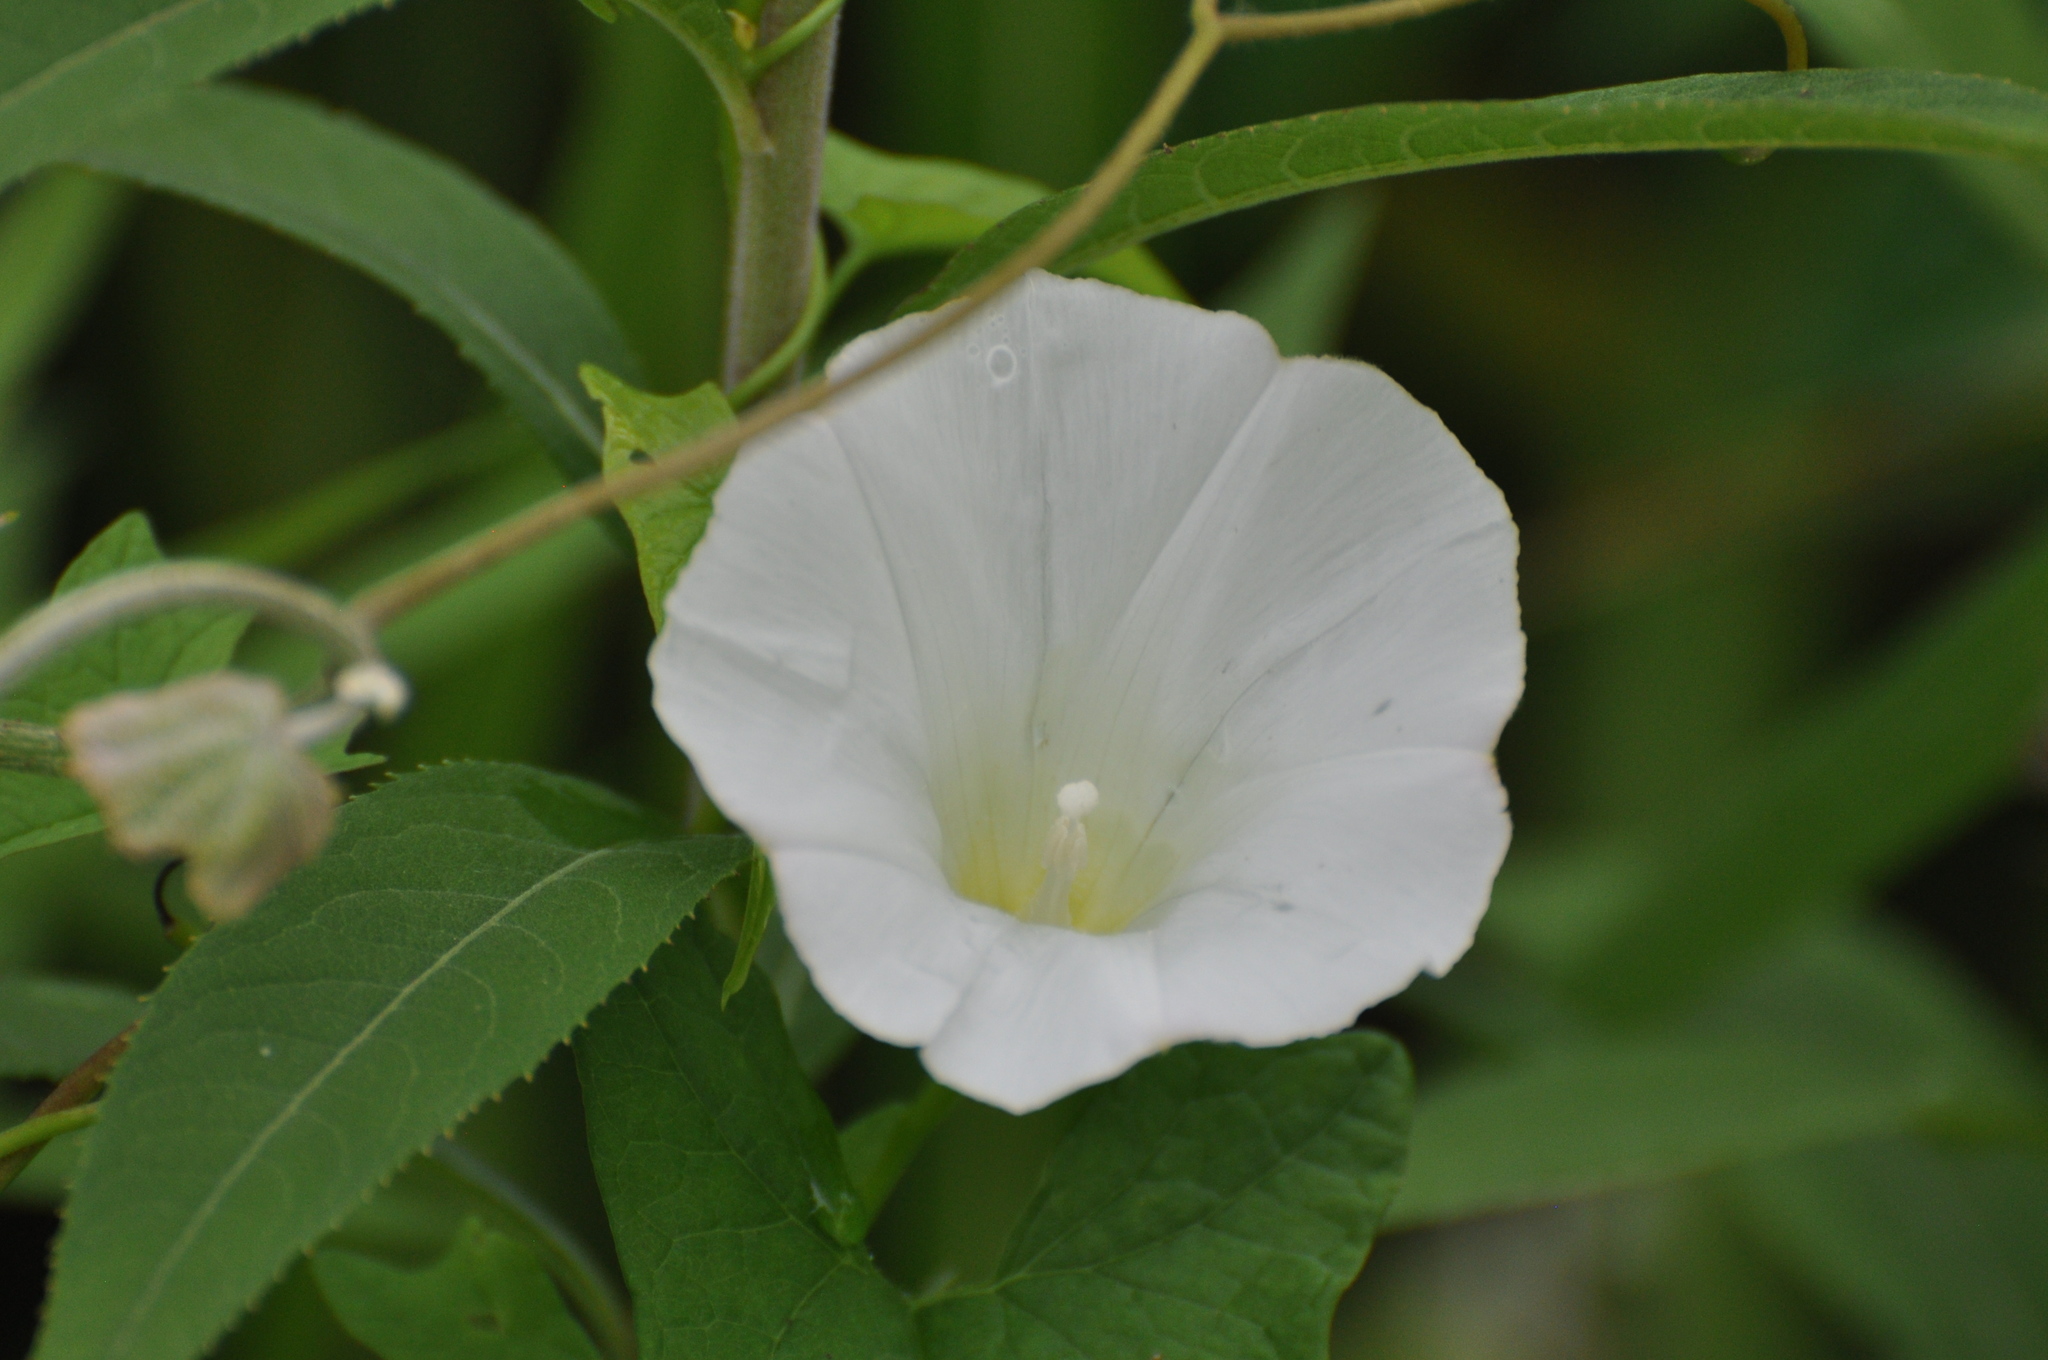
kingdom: Plantae
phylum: Tracheophyta
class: Magnoliopsida
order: Solanales
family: Convolvulaceae
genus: Ipomoea
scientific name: Ipomoea lacunosa
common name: White morning-glory
